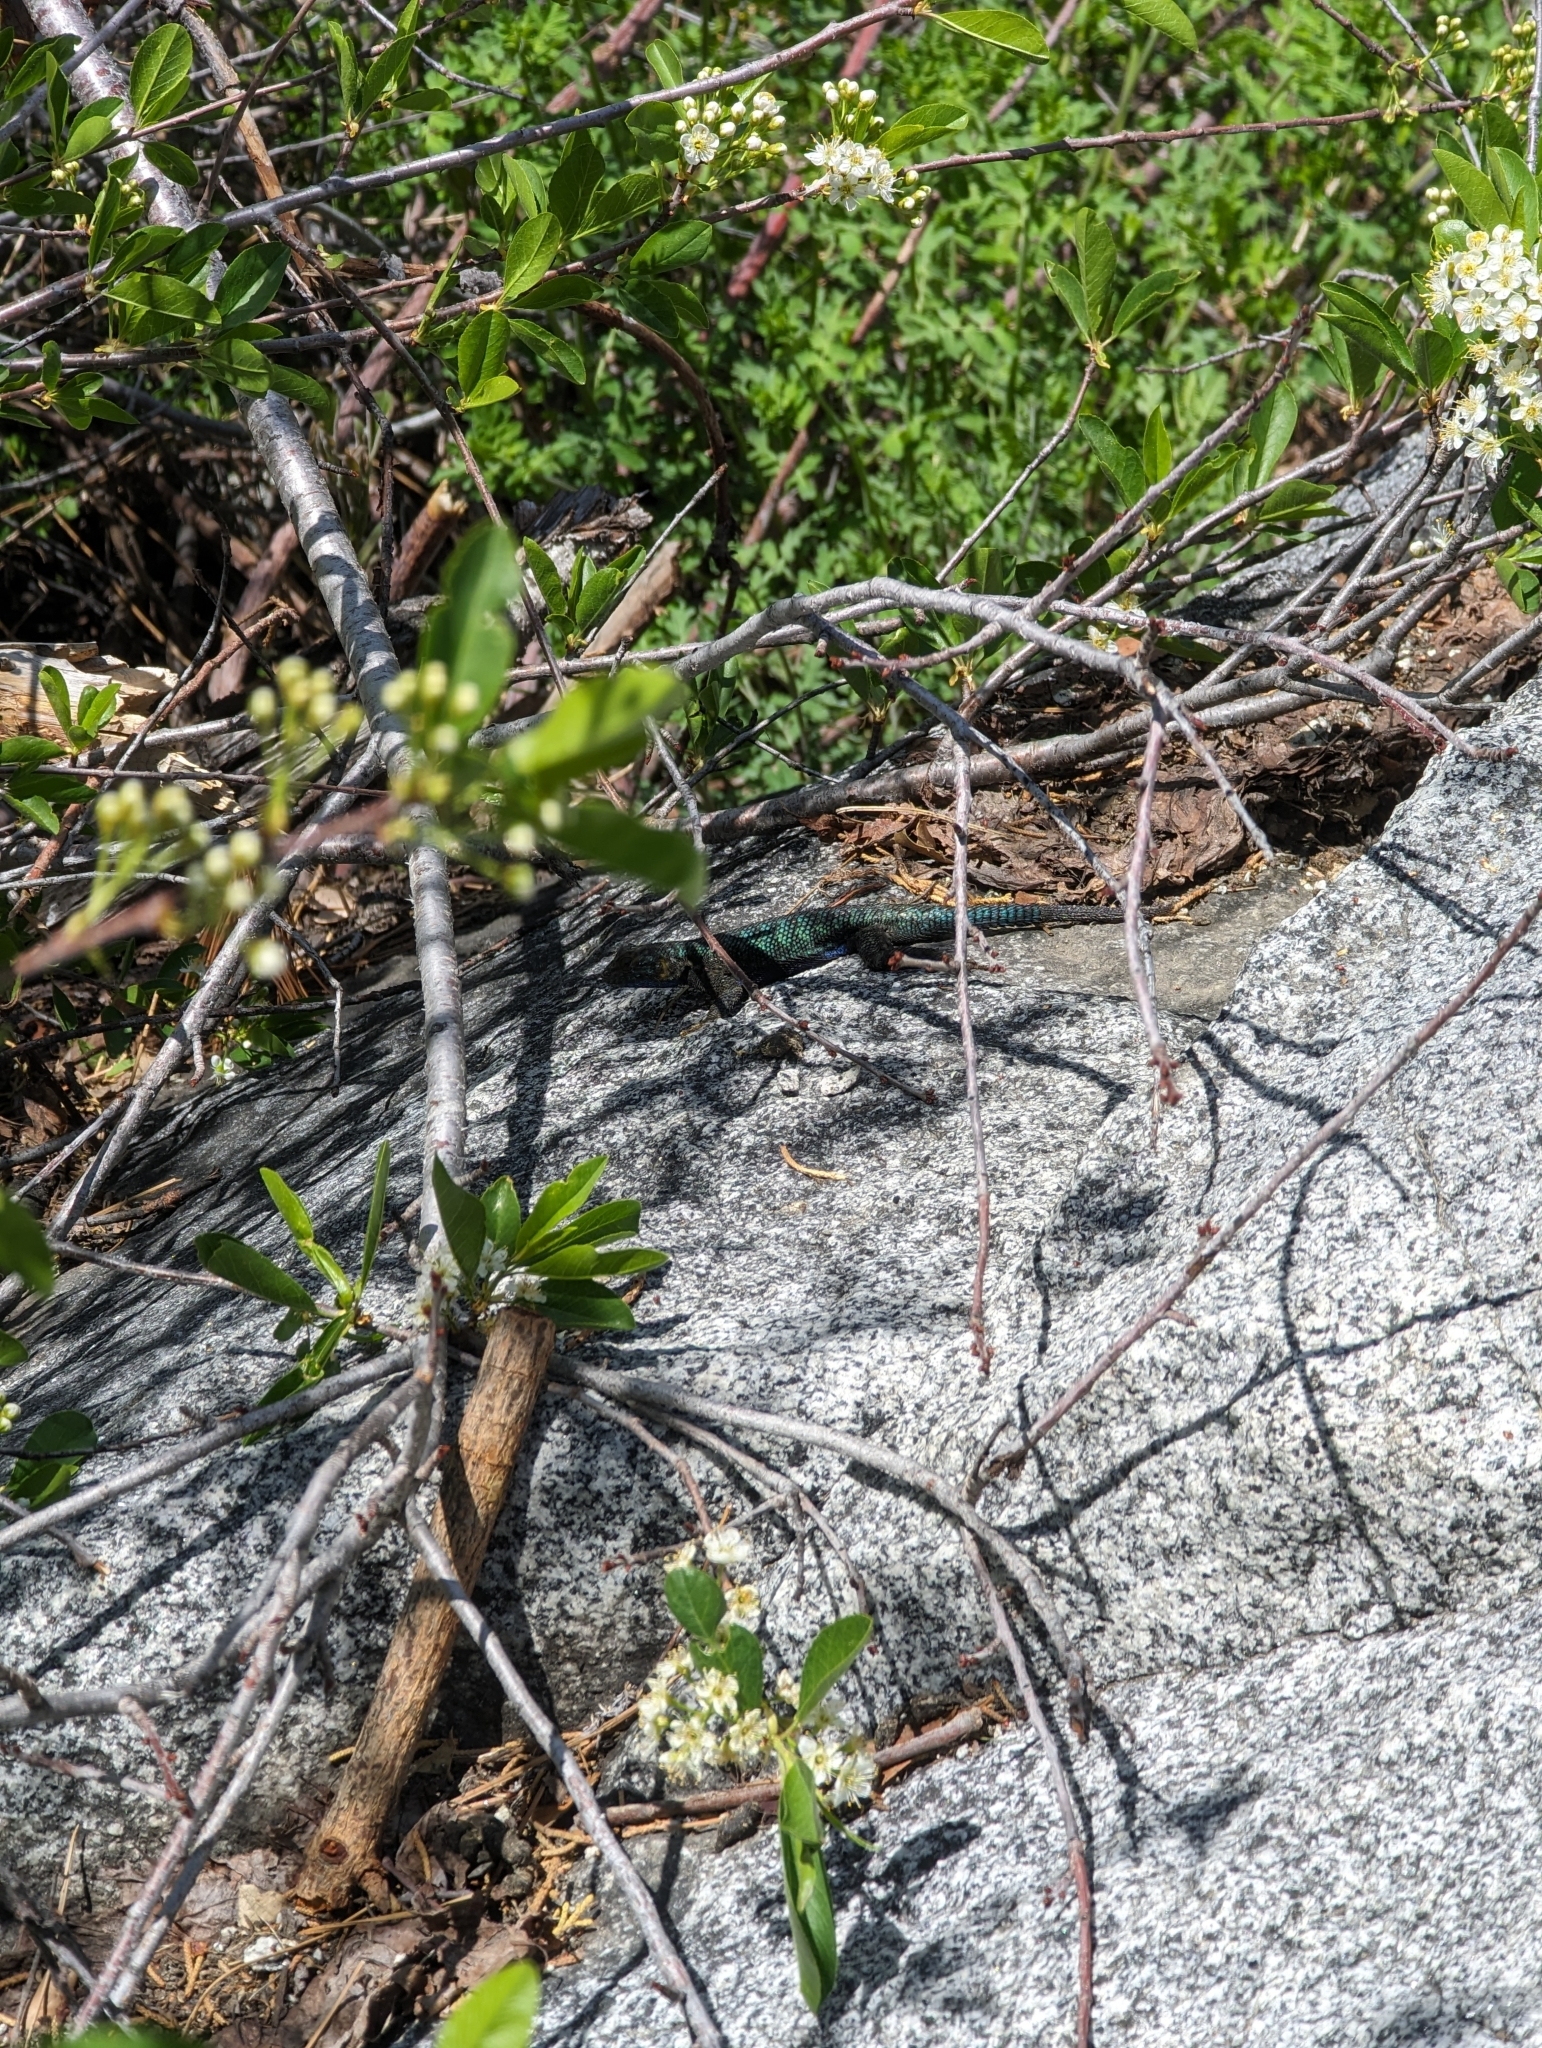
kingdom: Animalia
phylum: Chordata
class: Squamata
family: Phrynosomatidae
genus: Sceloporus
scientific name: Sceloporus occidentalis
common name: Western fence lizard
